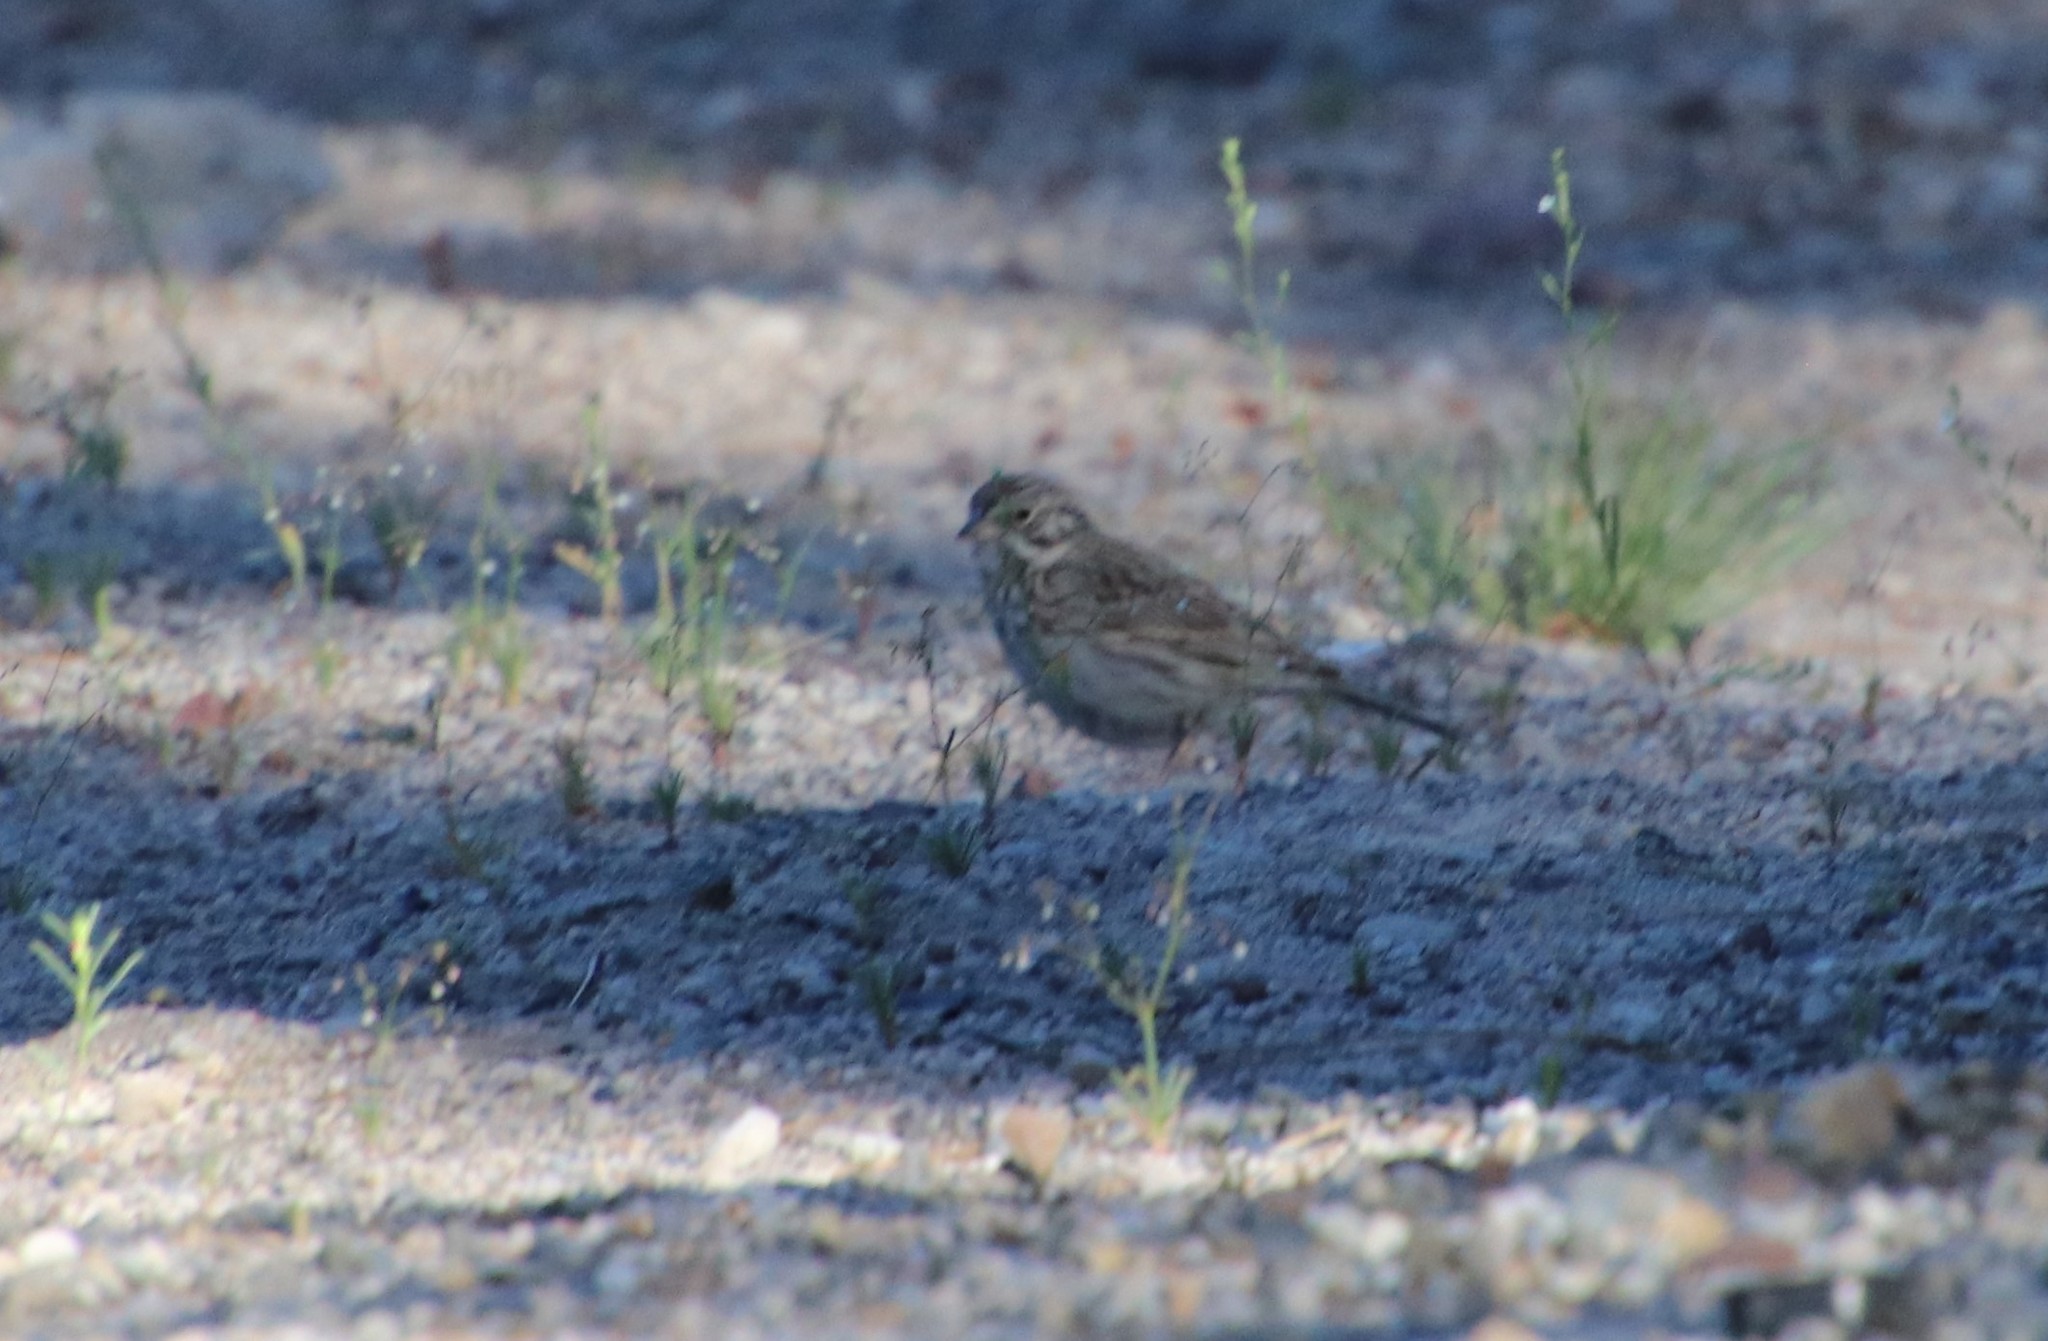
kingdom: Animalia
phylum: Chordata
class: Aves
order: Passeriformes
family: Passerellidae
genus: Pooecetes
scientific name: Pooecetes gramineus
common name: Vesper sparrow
